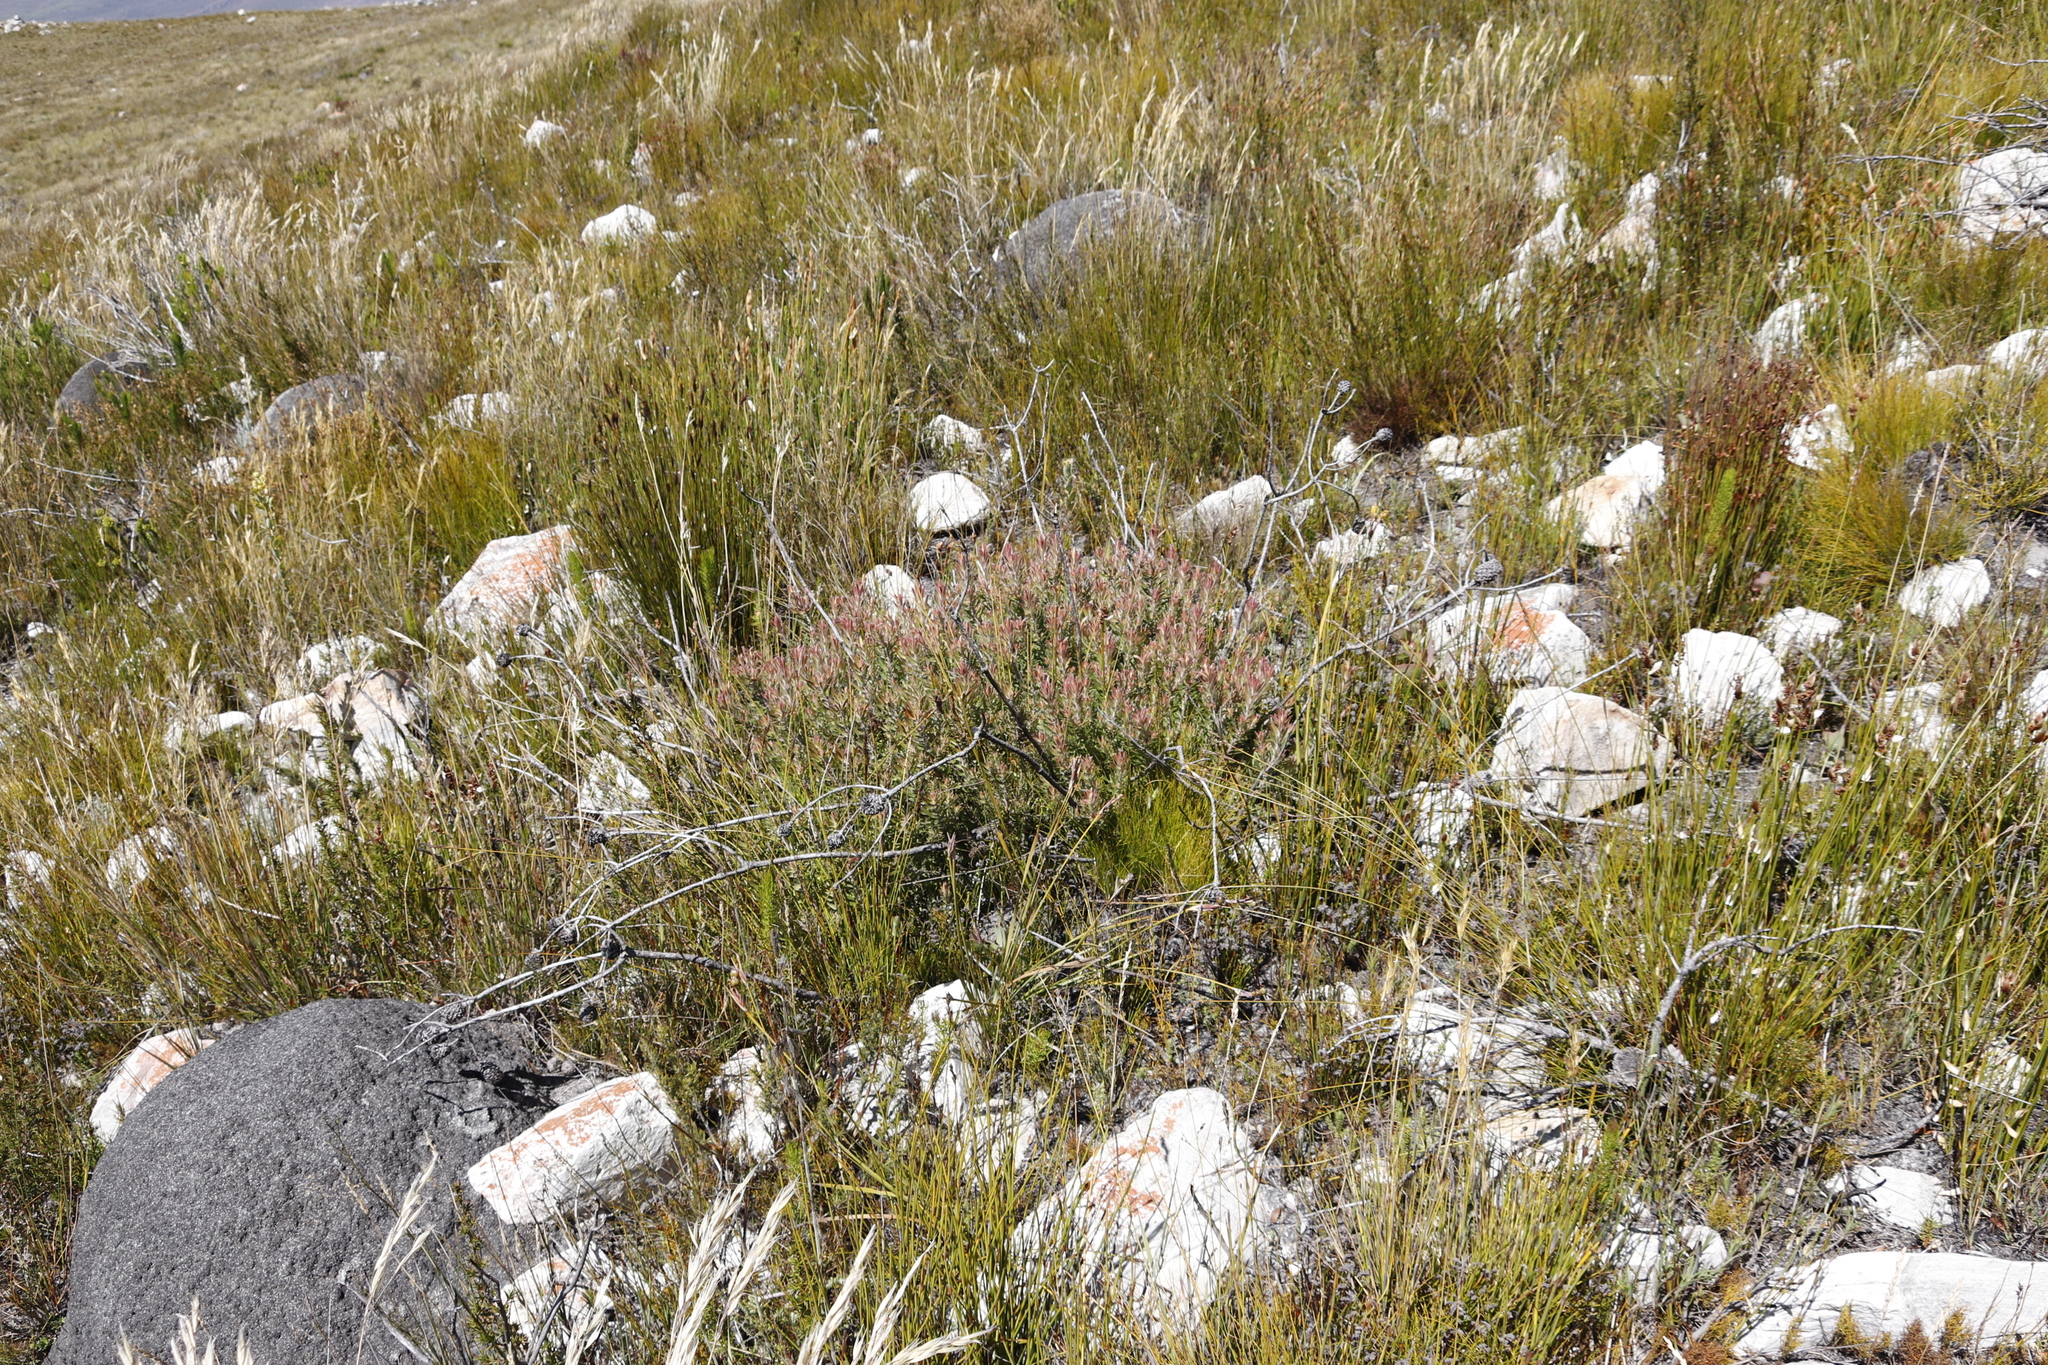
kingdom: Plantae
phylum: Tracheophyta
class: Magnoliopsida
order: Proteales
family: Proteaceae
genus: Leucadendron
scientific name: Leucadendron spissifolium
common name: Spear-leaf conebush
